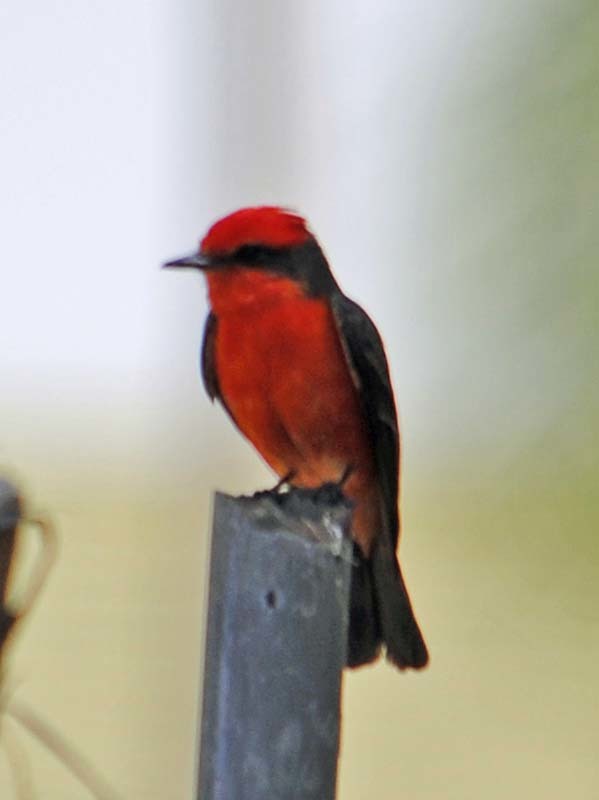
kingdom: Animalia
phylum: Chordata
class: Aves
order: Passeriformes
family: Tyrannidae
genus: Pyrocephalus
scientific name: Pyrocephalus rubinus
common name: Vermilion flycatcher
